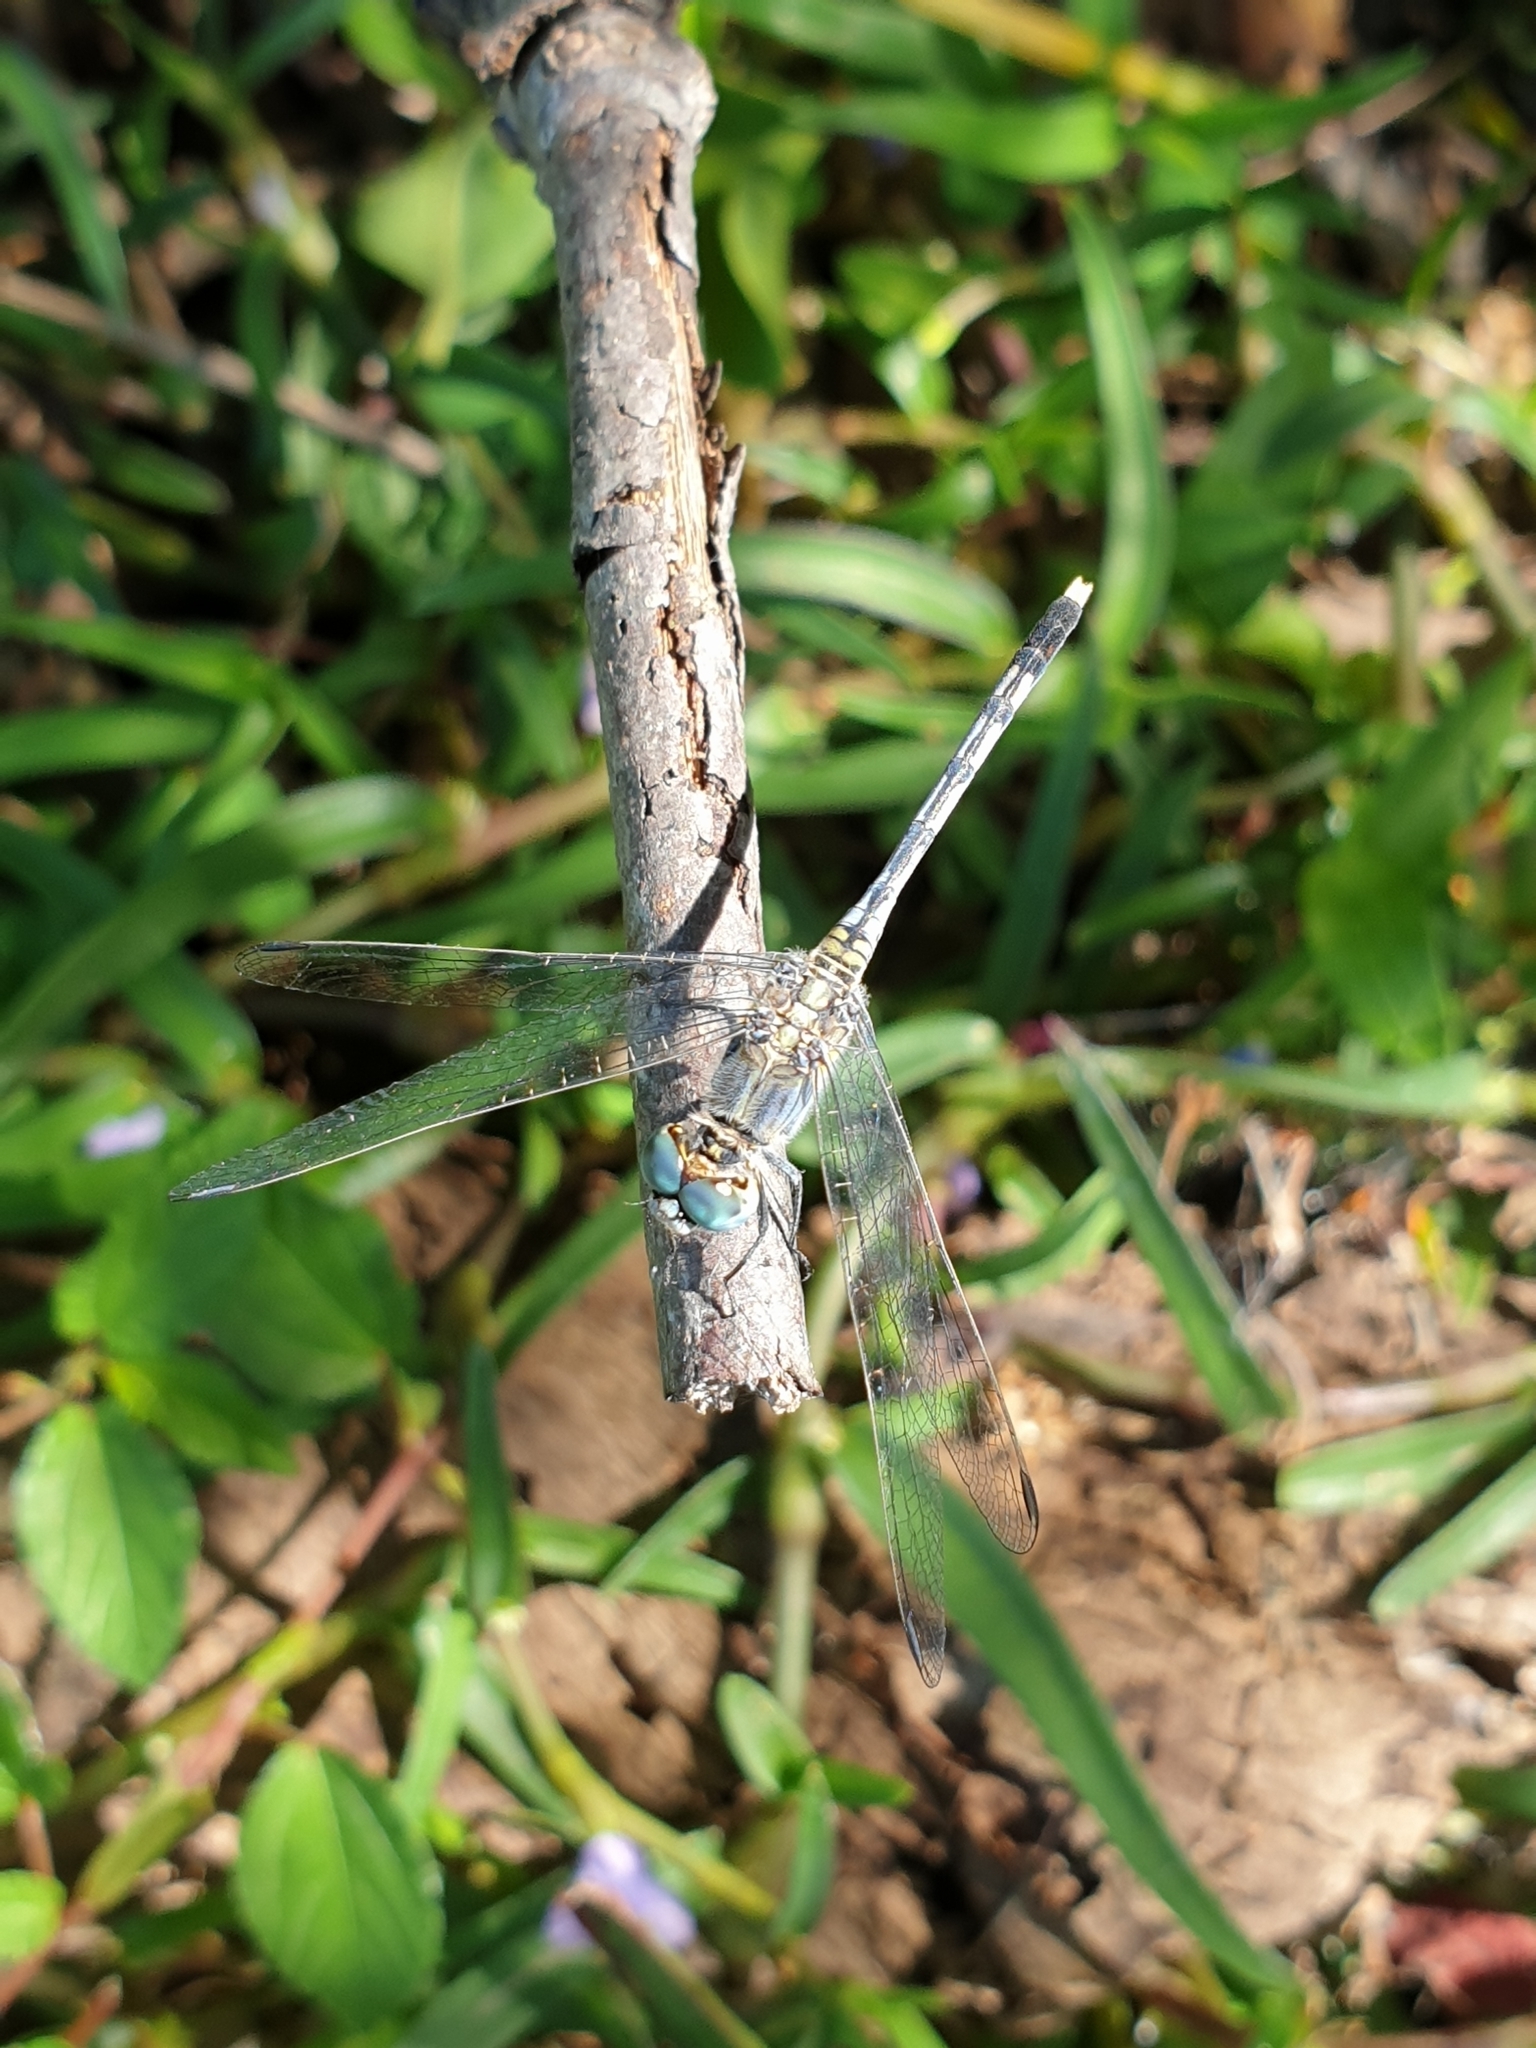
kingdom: Animalia
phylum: Arthropoda
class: Insecta
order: Odonata
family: Libellulidae
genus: Diplacodes
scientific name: Diplacodes trivialis
